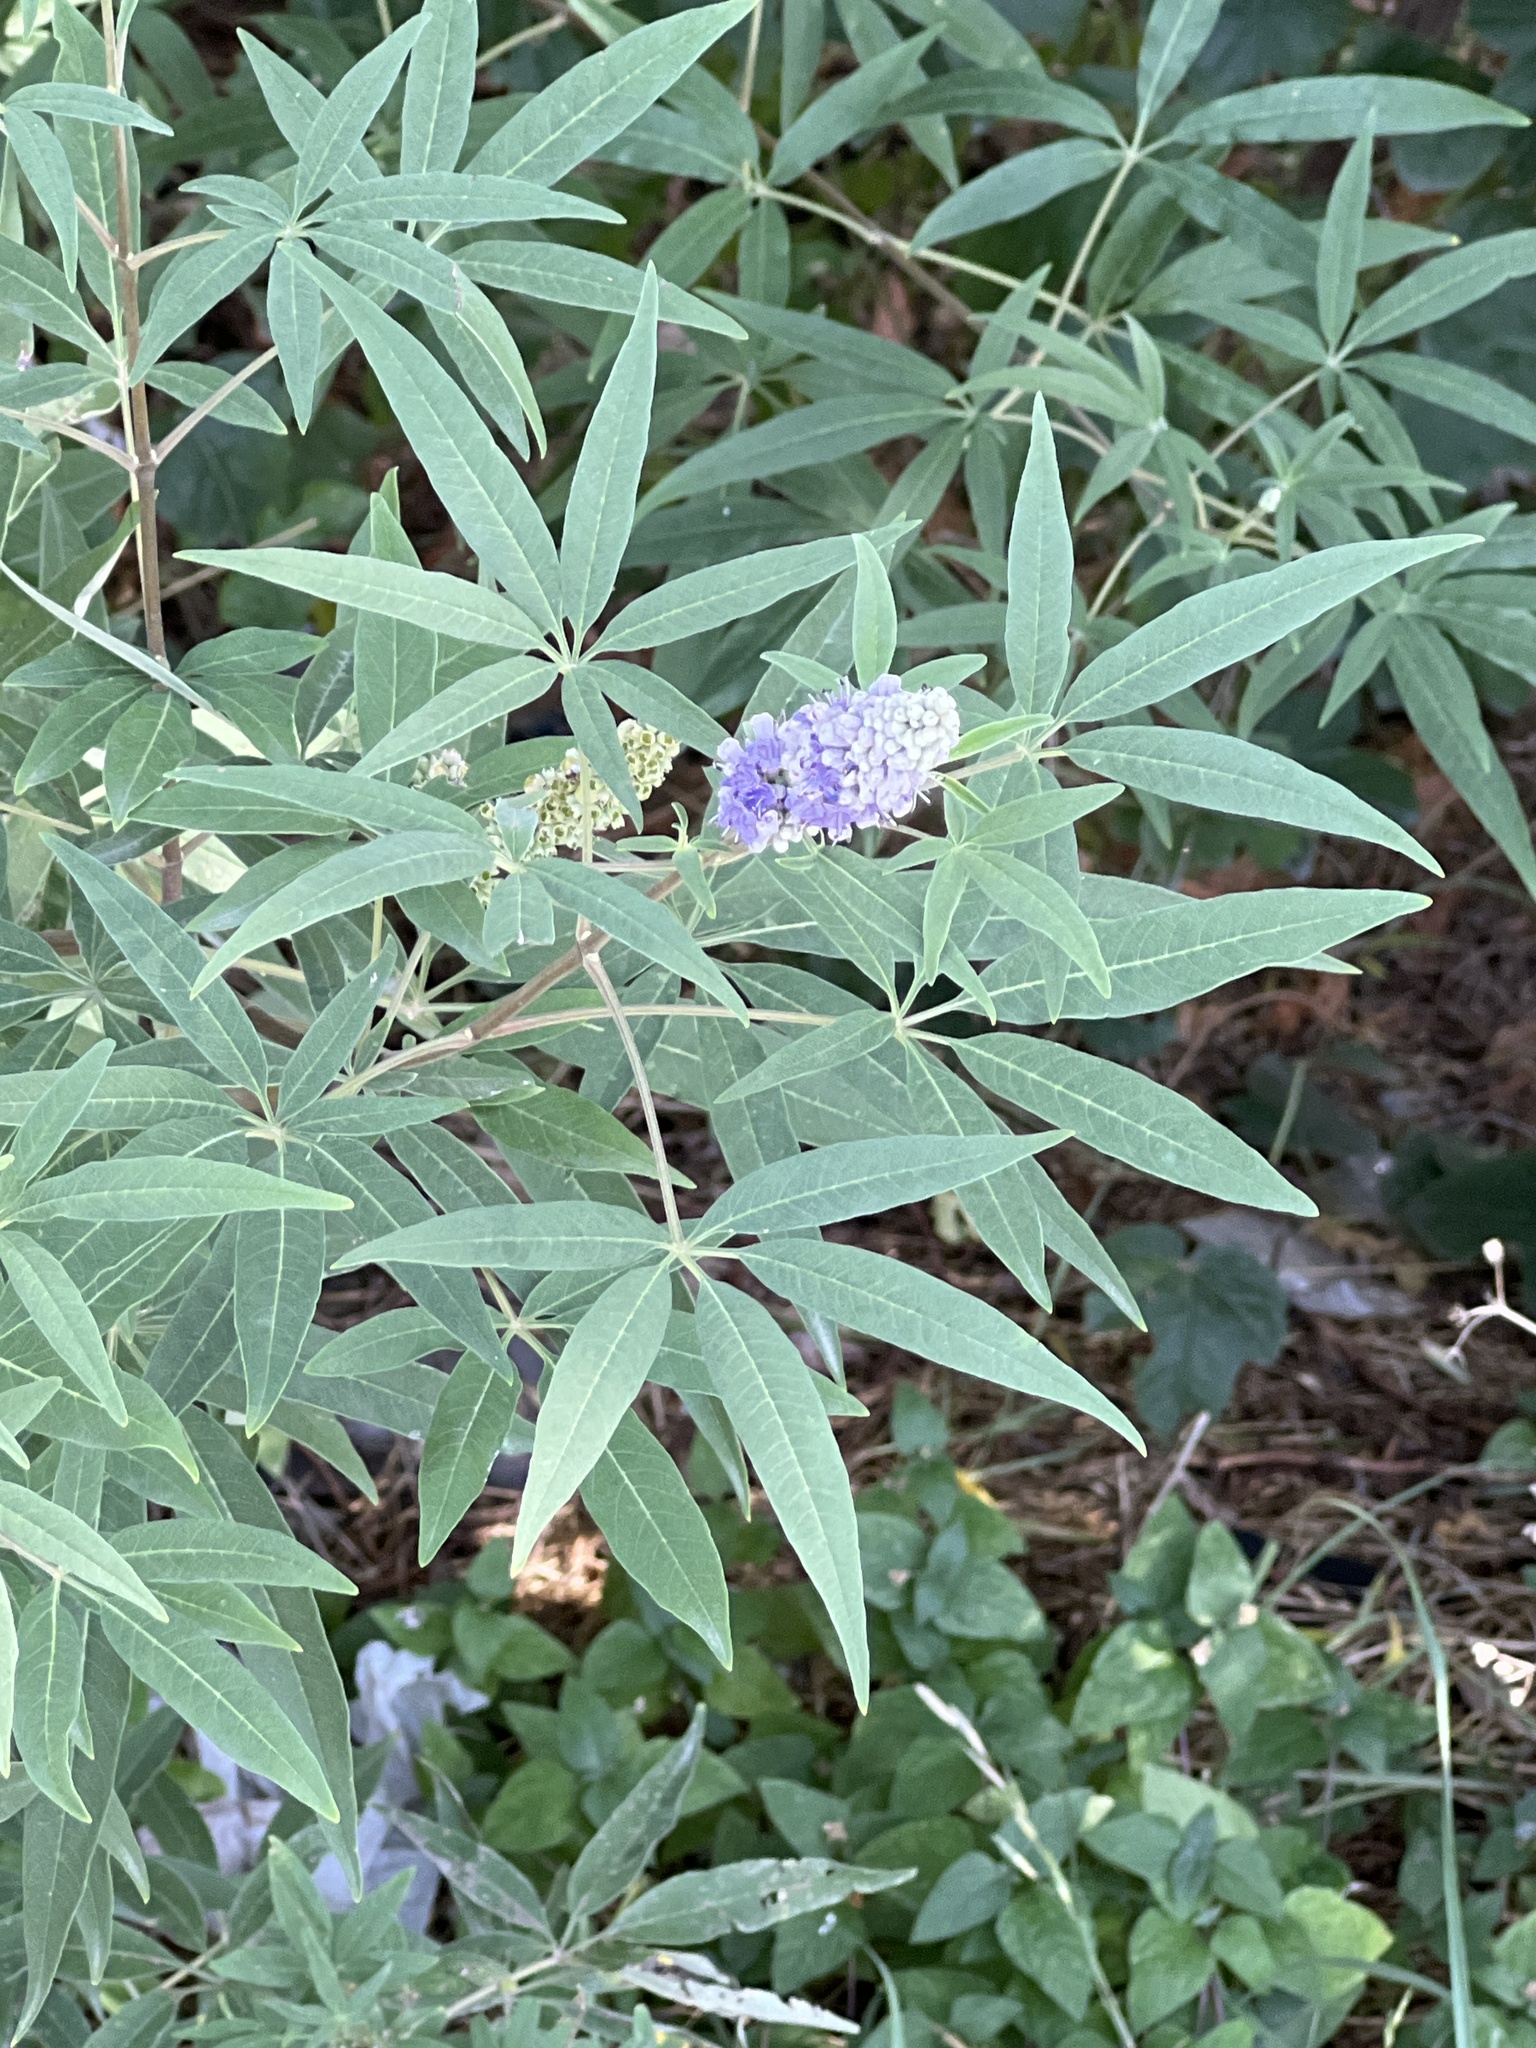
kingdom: Plantae
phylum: Tracheophyta
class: Magnoliopsida
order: Lamiales
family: Lamiaceae
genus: Vitex
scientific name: Vitex agnus-castus
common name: Chasteberry
